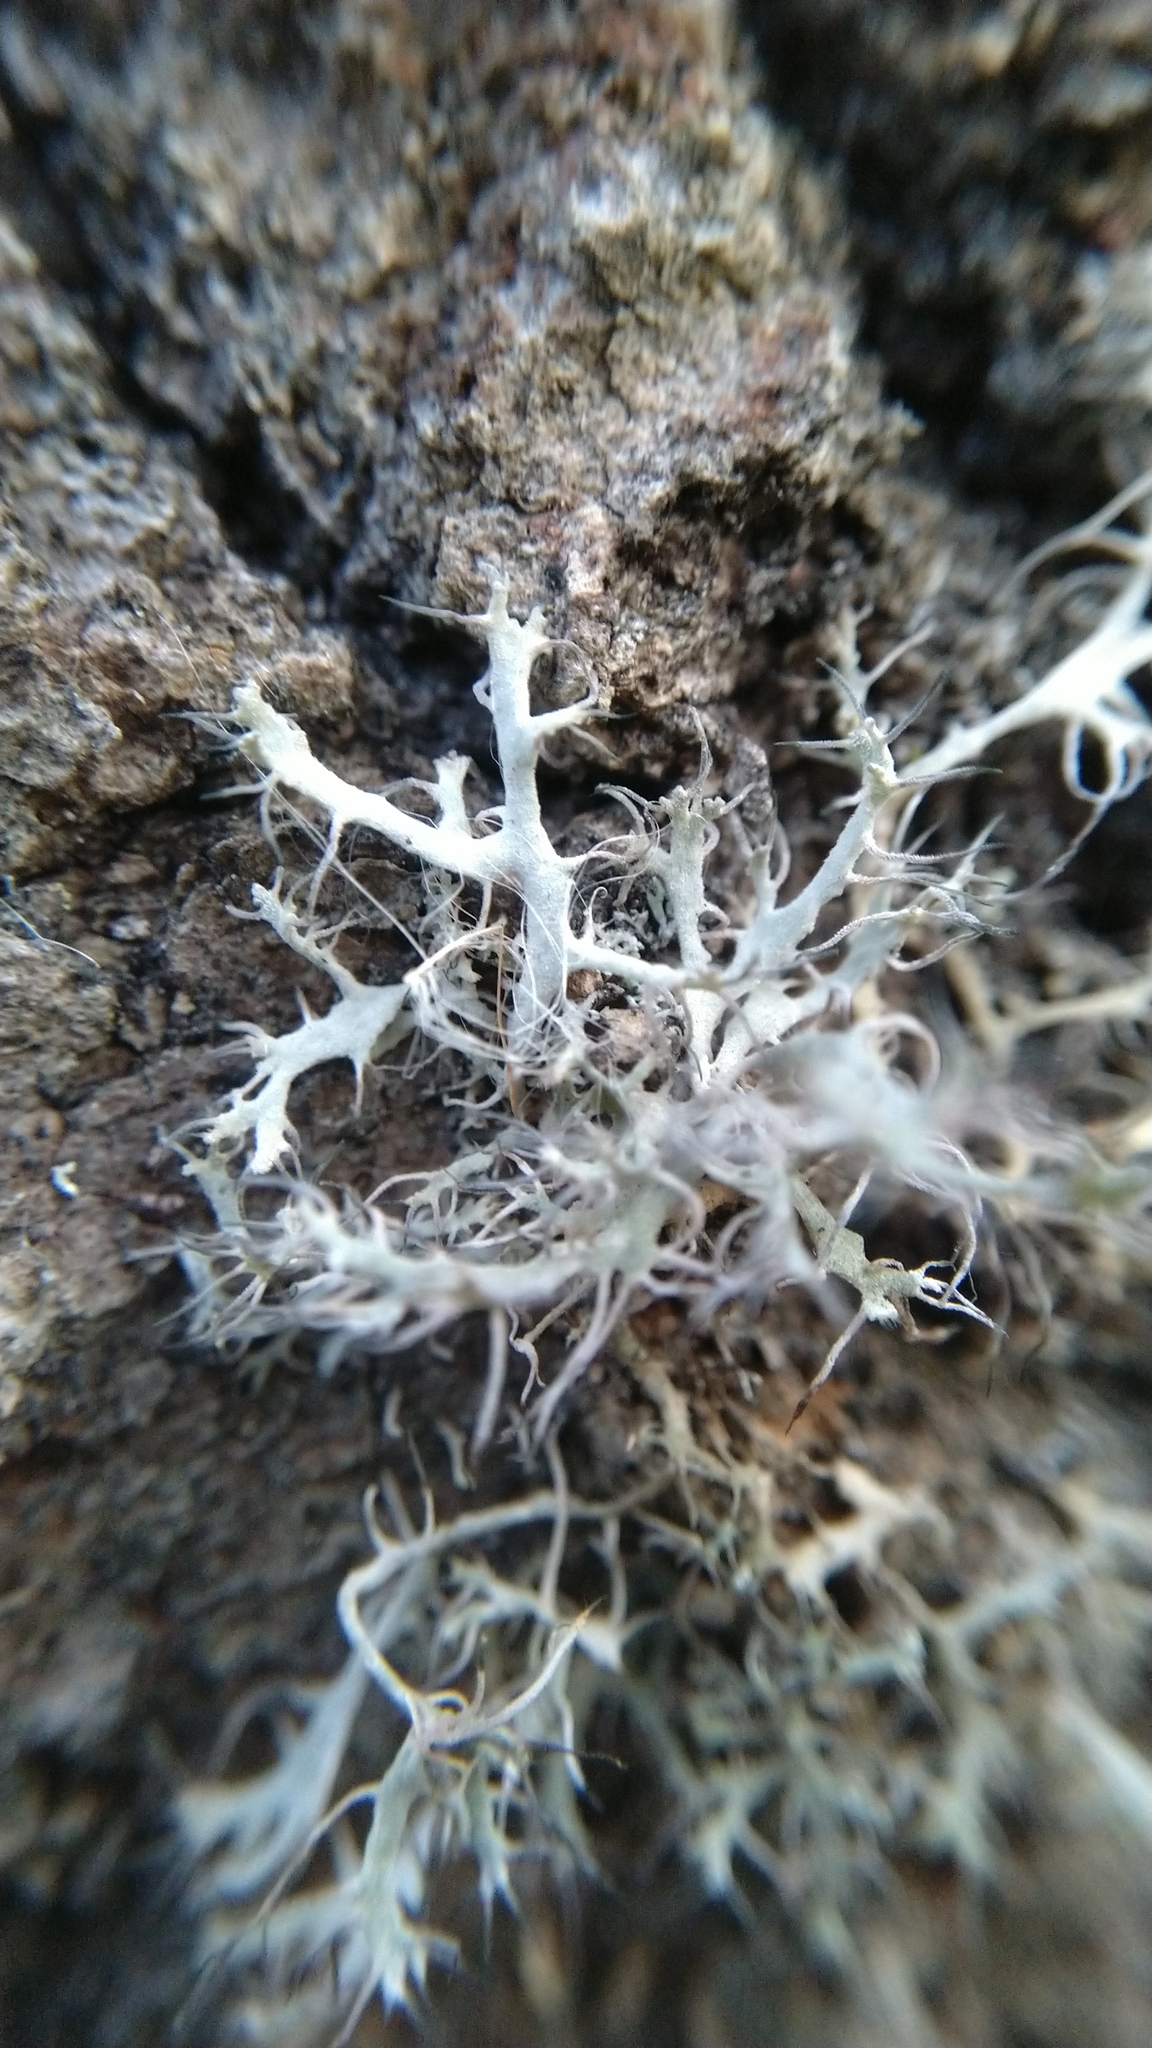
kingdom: Fungi
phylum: Ascomycota
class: Lecanoromycetes
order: Caliciales
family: Physciaceae
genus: Anaptychia
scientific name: Anaptychia ciliaris
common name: Great ciliated lichen
